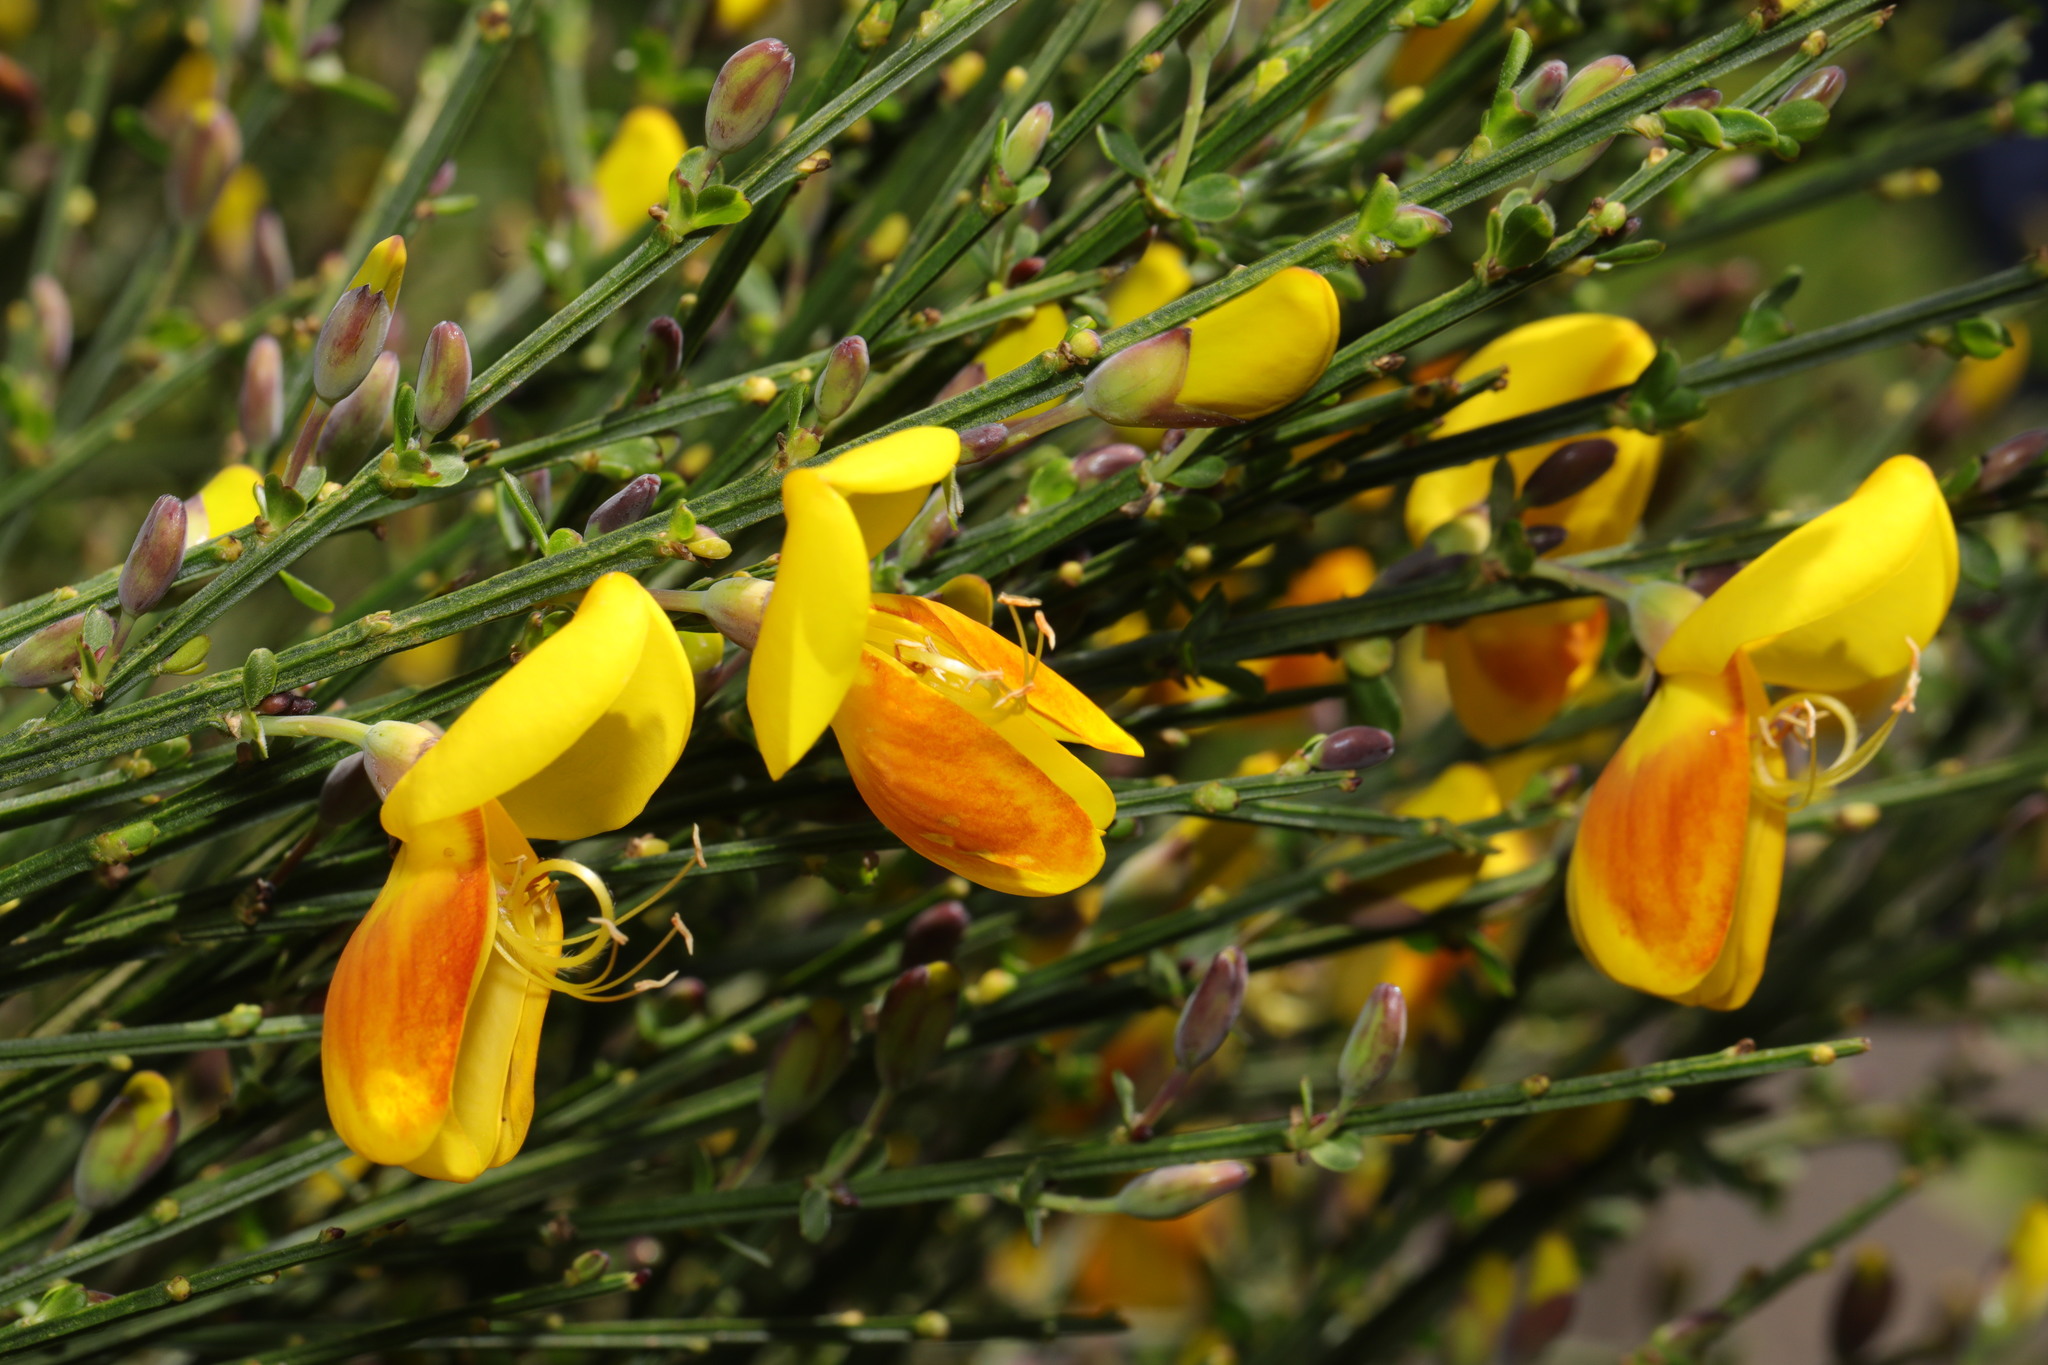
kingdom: Plantae
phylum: Tracheophyta
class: Magnoliopsida
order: Fabales
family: Fabaceae
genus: Cytisus
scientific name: Cytisus scoparius
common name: Scotch broom
